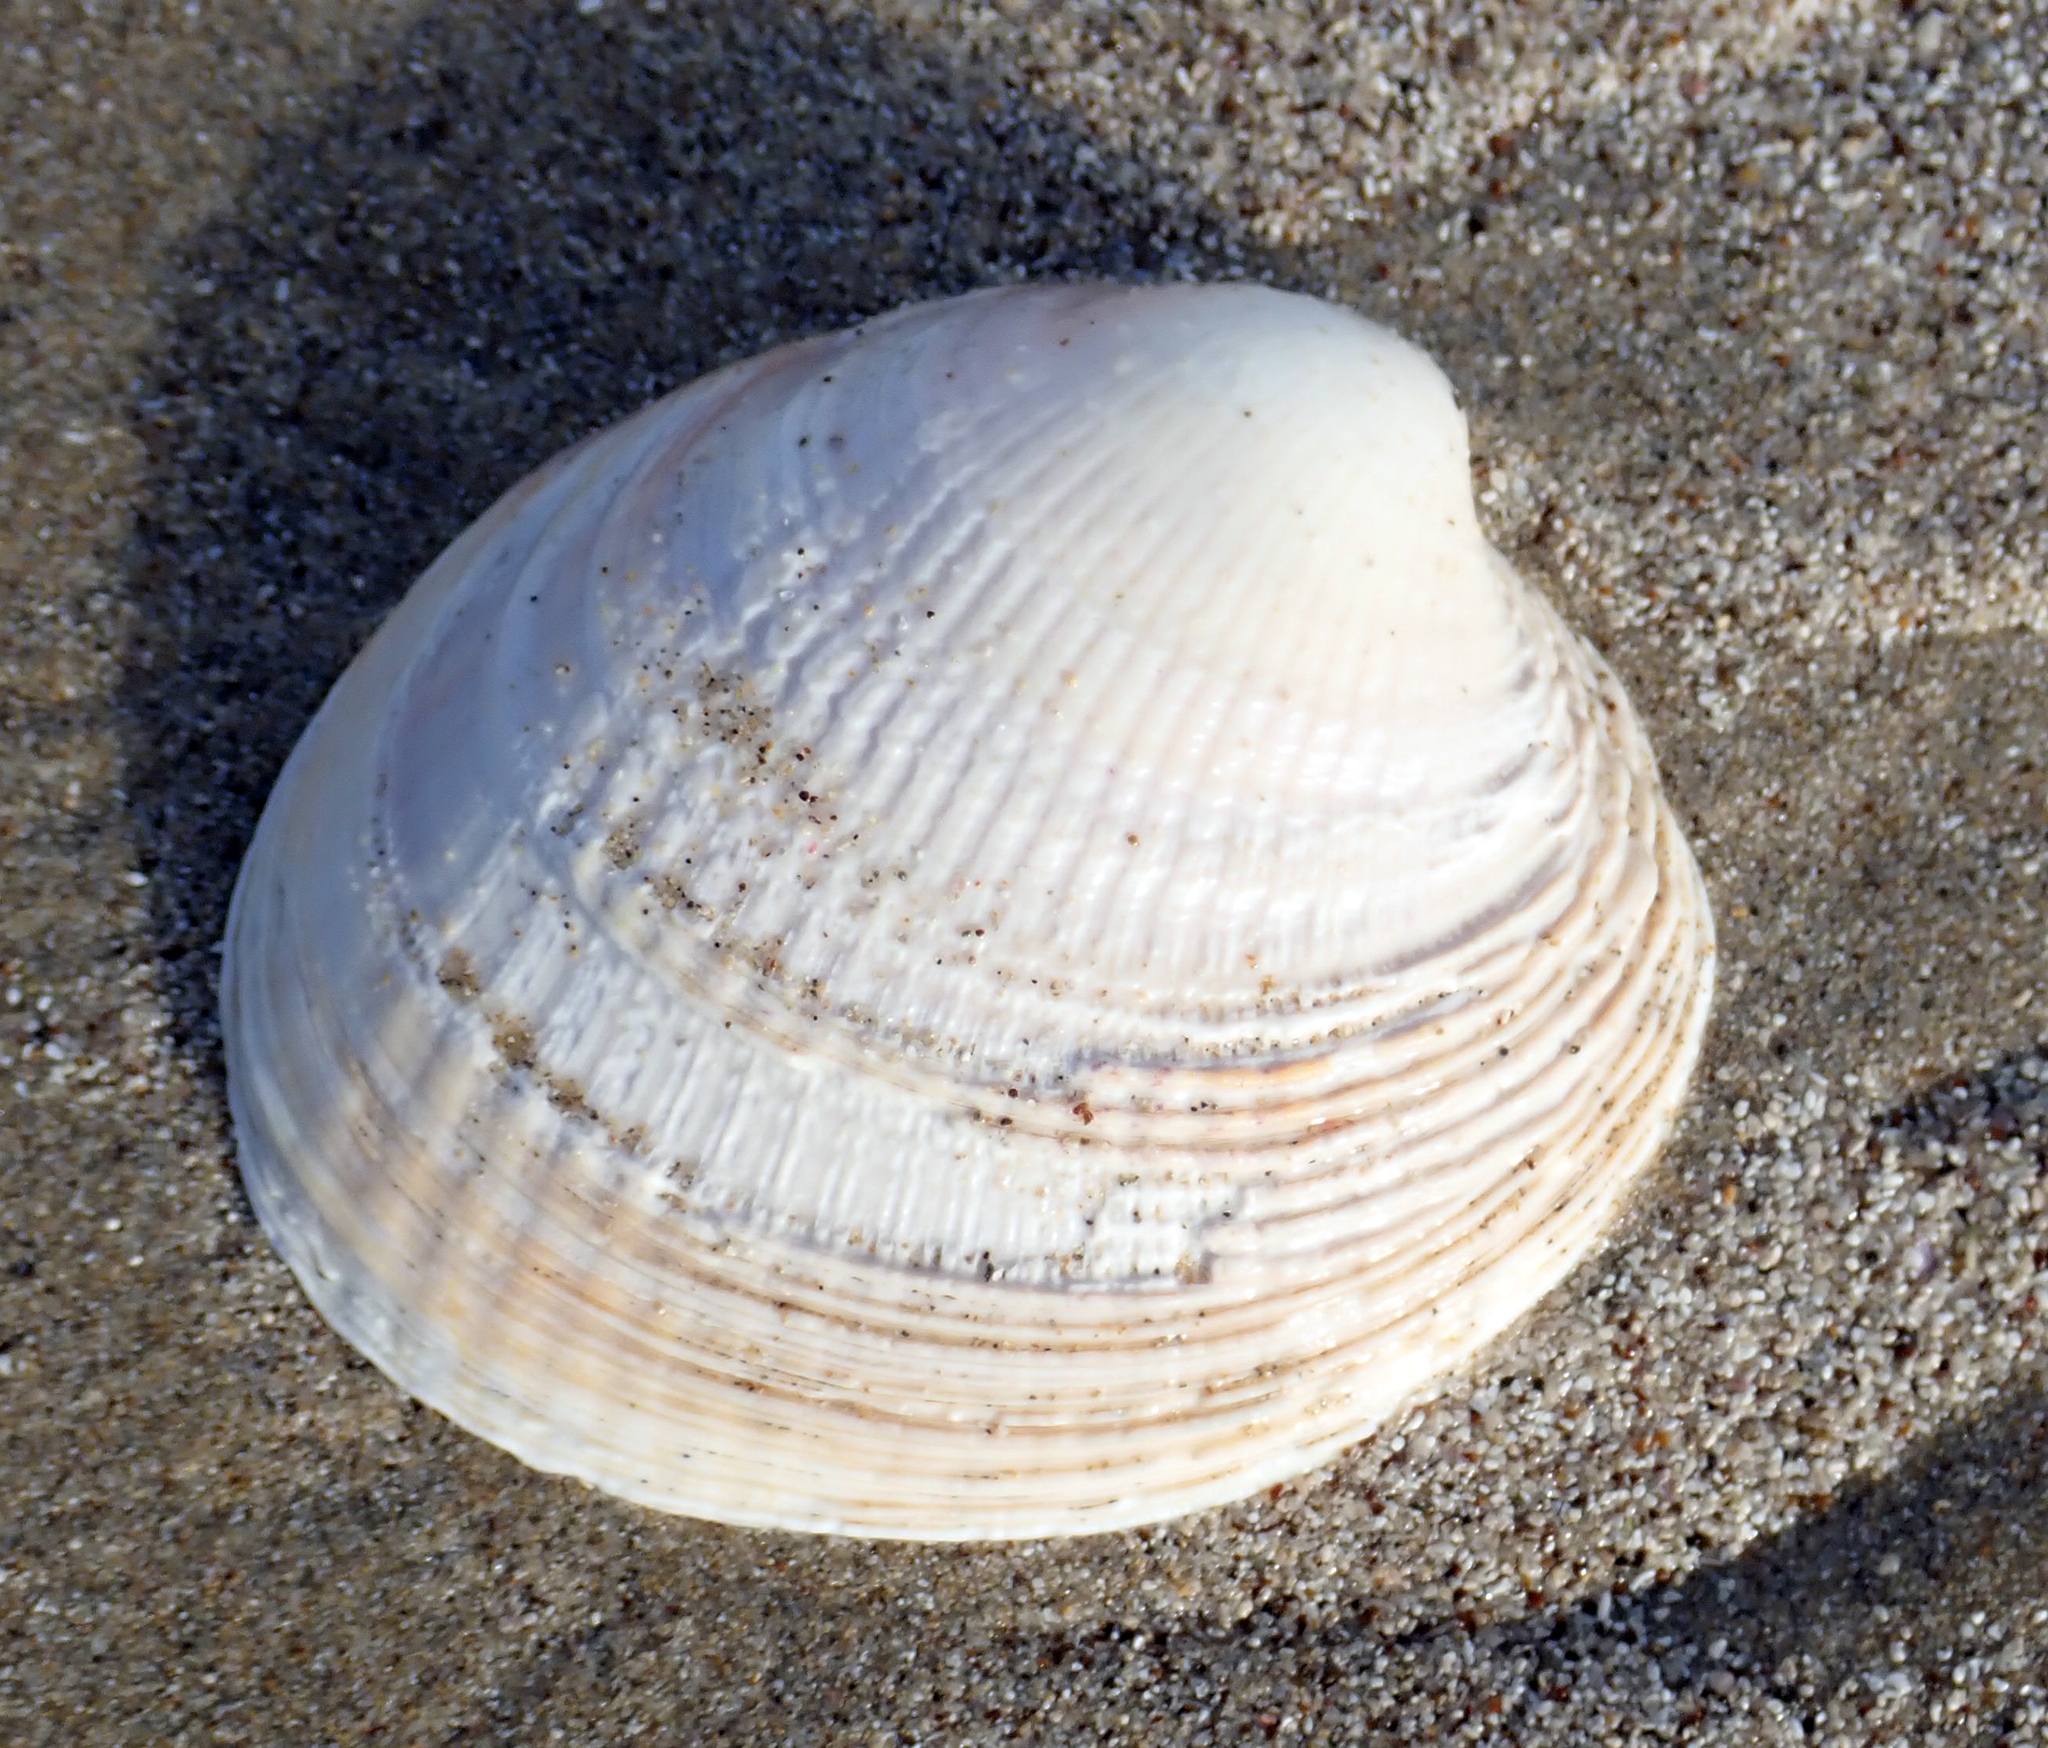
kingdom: Animalia
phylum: Mollusca
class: Bivalvia
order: Venerida
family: Veneridae
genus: Austrovenus
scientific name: Austrovenus stutchburyi
